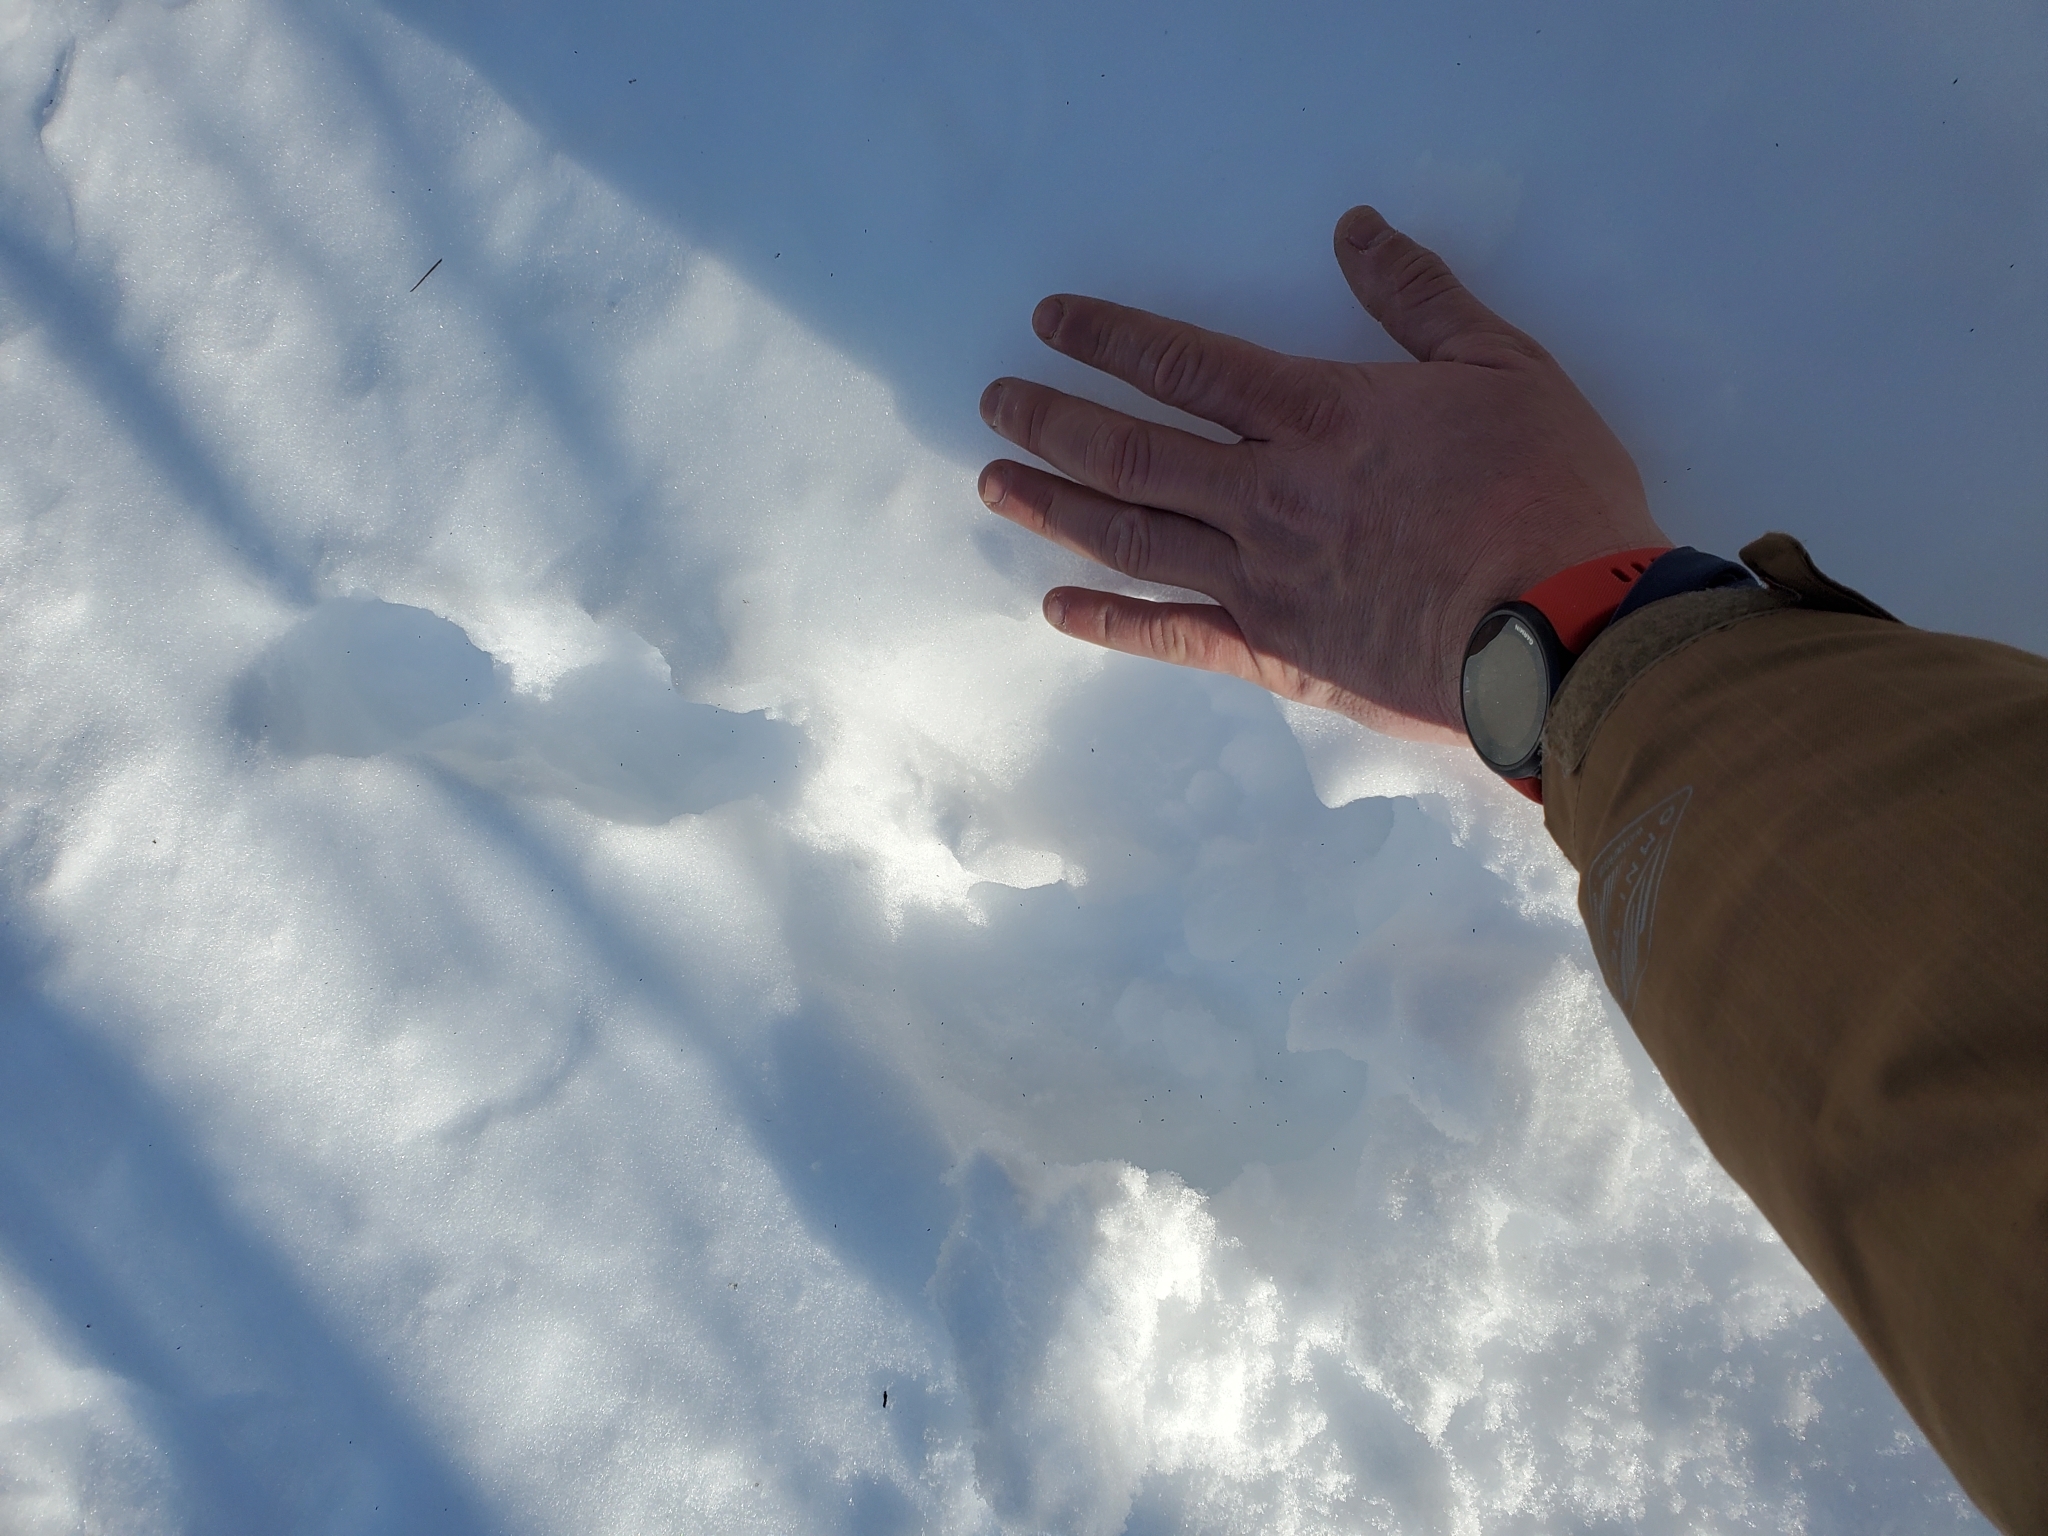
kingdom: Animalia
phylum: Chordata
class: Mammalia
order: Lagomorpha
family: Leporidae
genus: Lepus
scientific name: Lepus americanus
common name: Snowshoe hare
